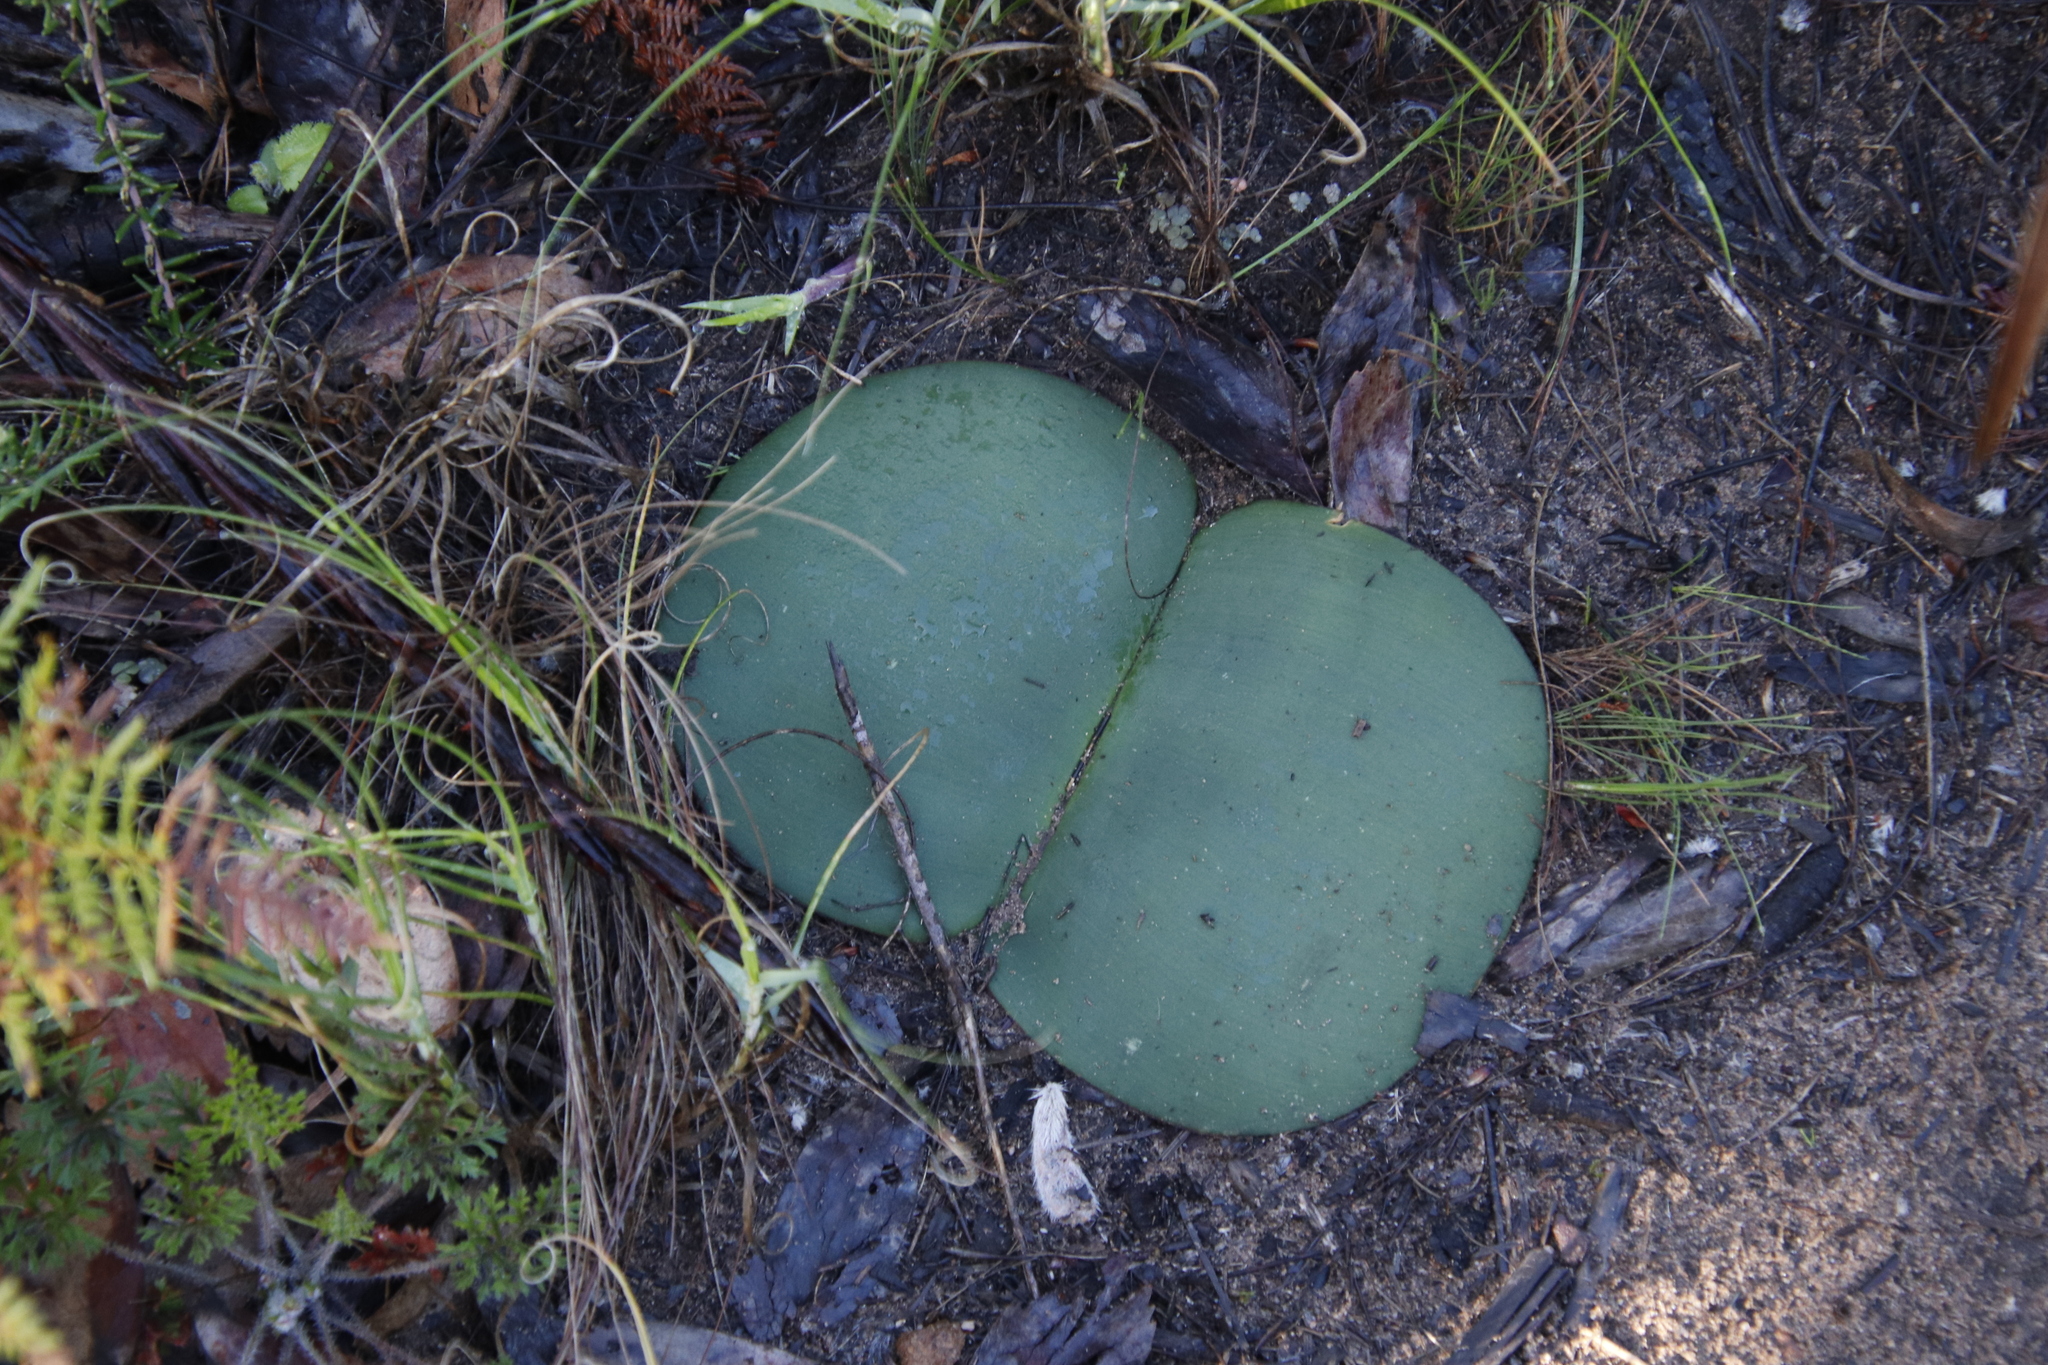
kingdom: Plantae
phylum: Tracheophyta
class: Liliopsida
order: Asparagales
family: Amaryllidaceae
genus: Haemanthus
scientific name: Haemanthus sanguineus
